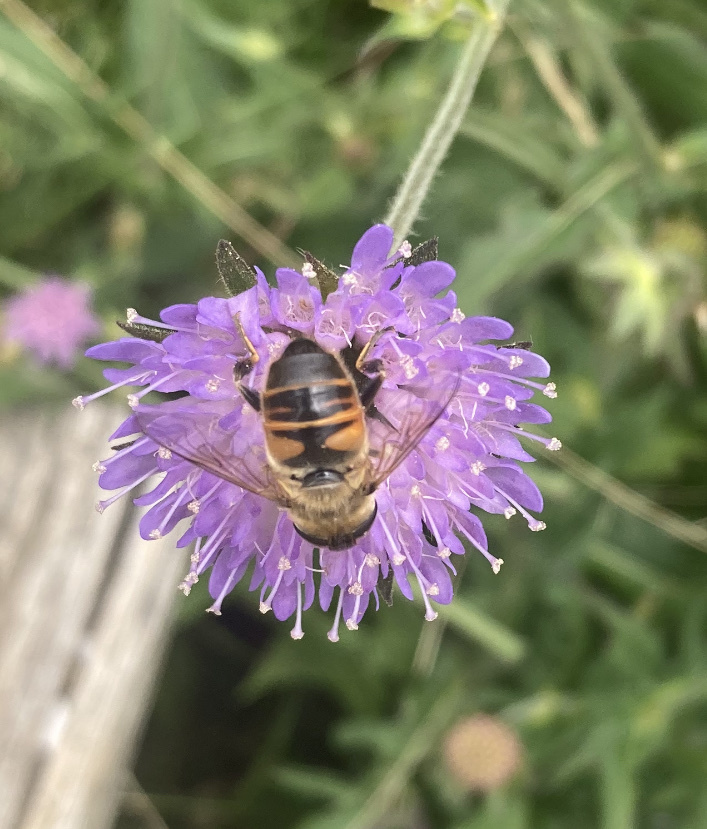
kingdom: Animalia
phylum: Arthropoda
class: Insecta
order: Diptera
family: Syrphidae
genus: Eristalis
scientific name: Eristalis tenax
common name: Drone fly
